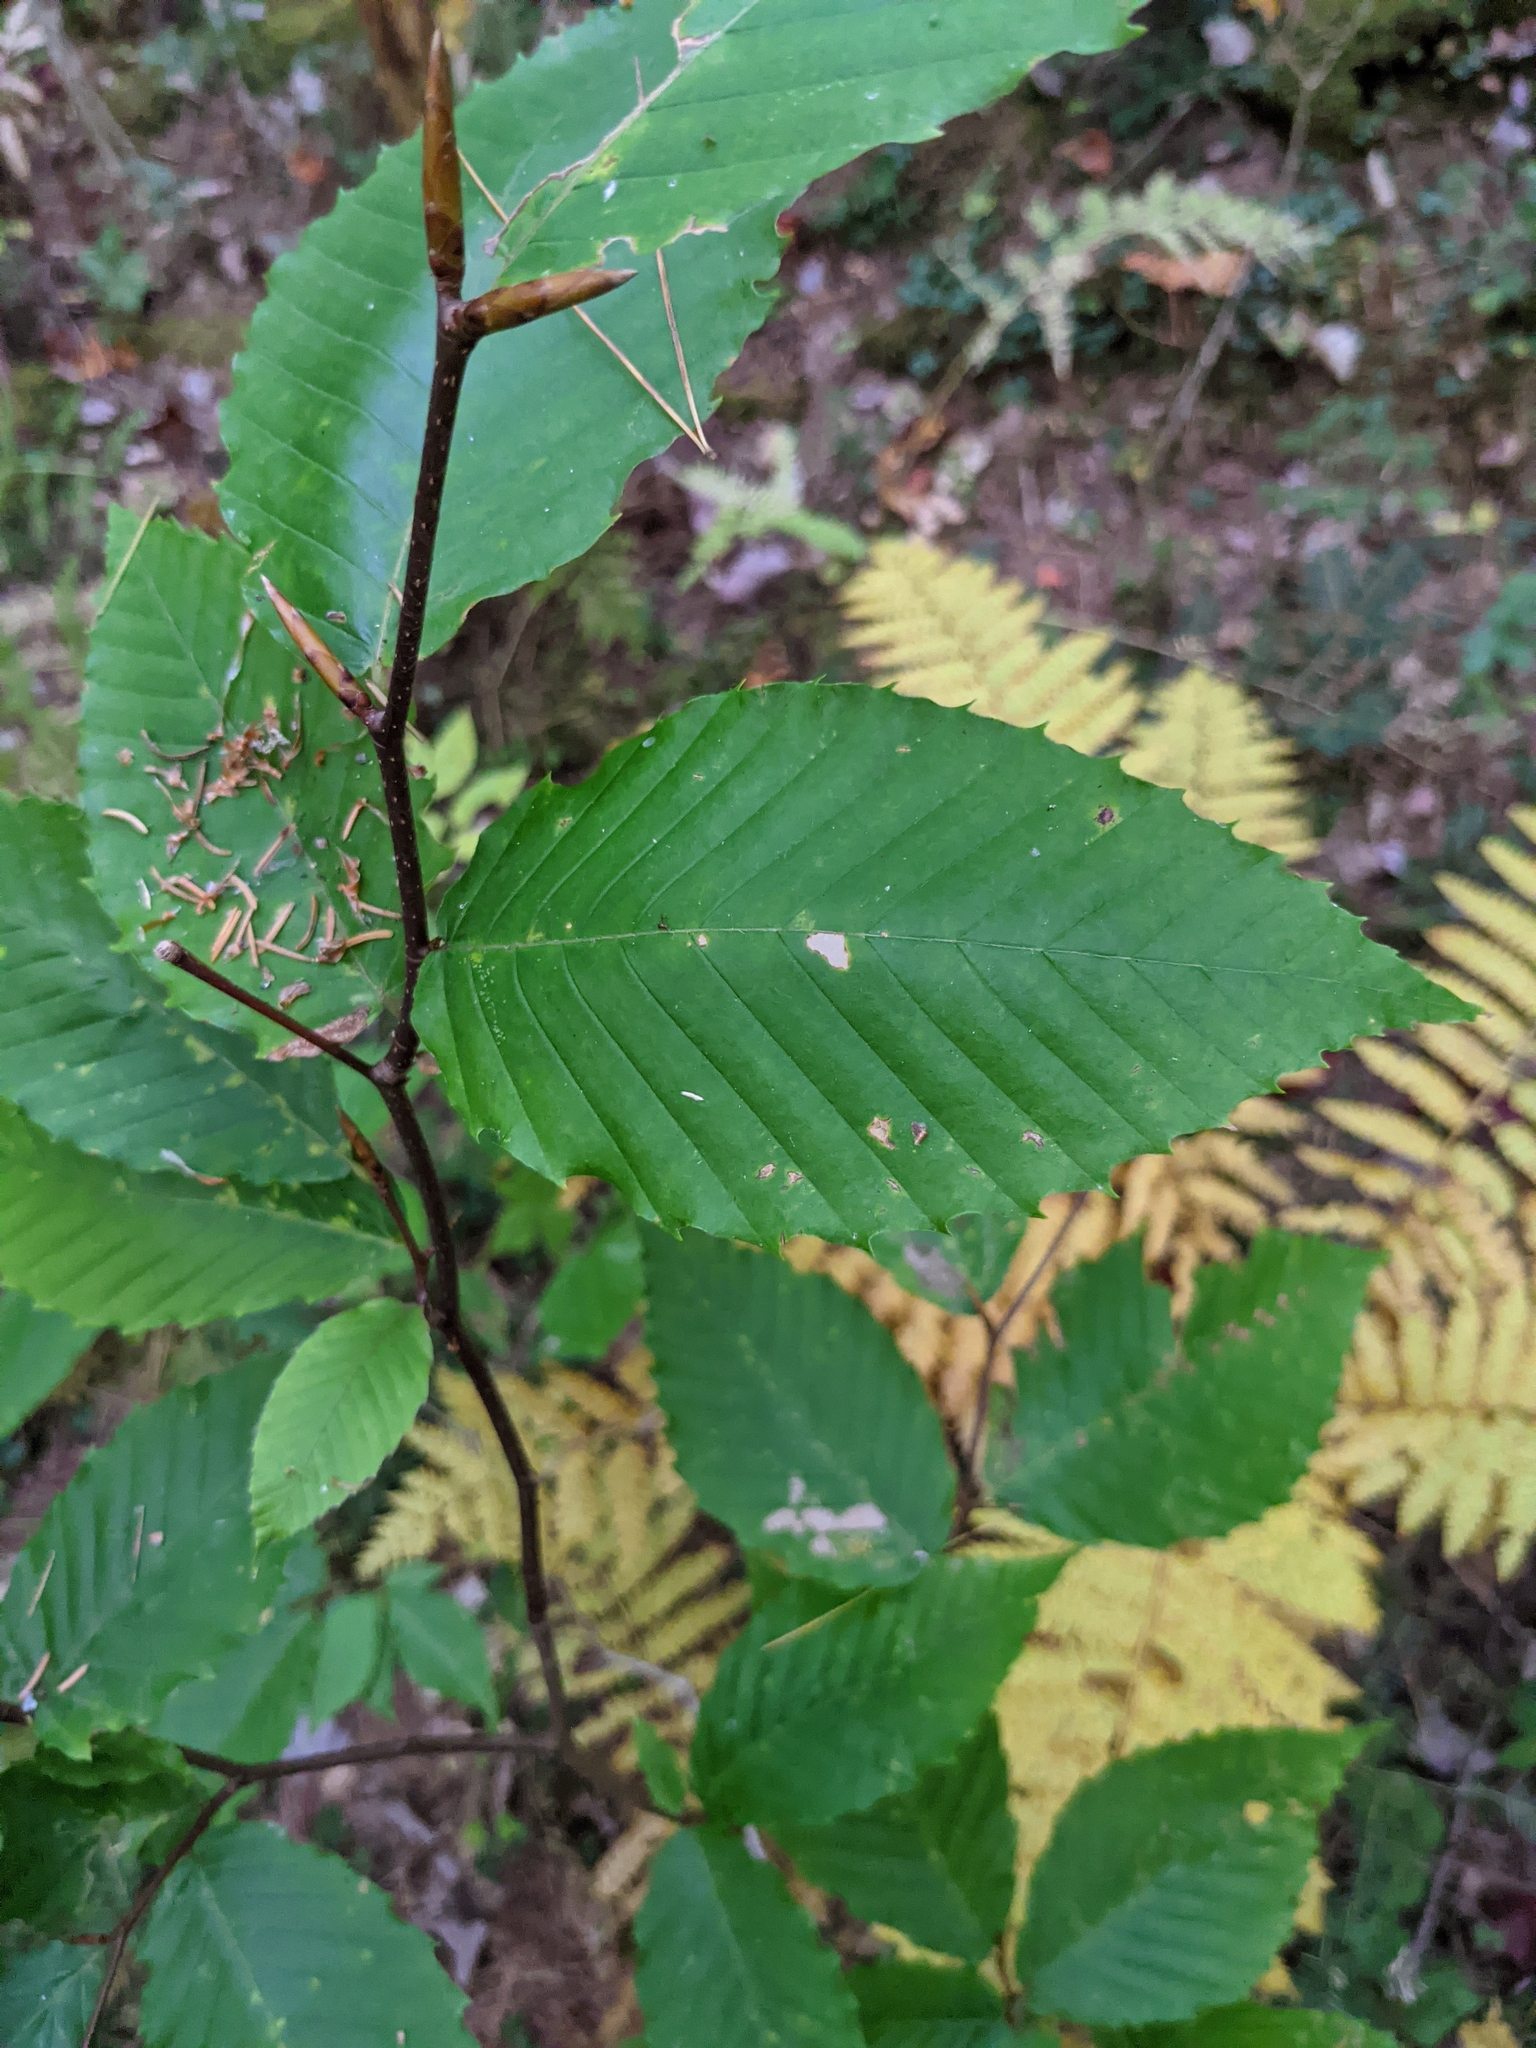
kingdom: Plantae
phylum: Tracheophyta
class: Magnoliopsida
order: Fagales
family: Fagaceae
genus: Fagus
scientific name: Fagus grandifolia
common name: American beech
